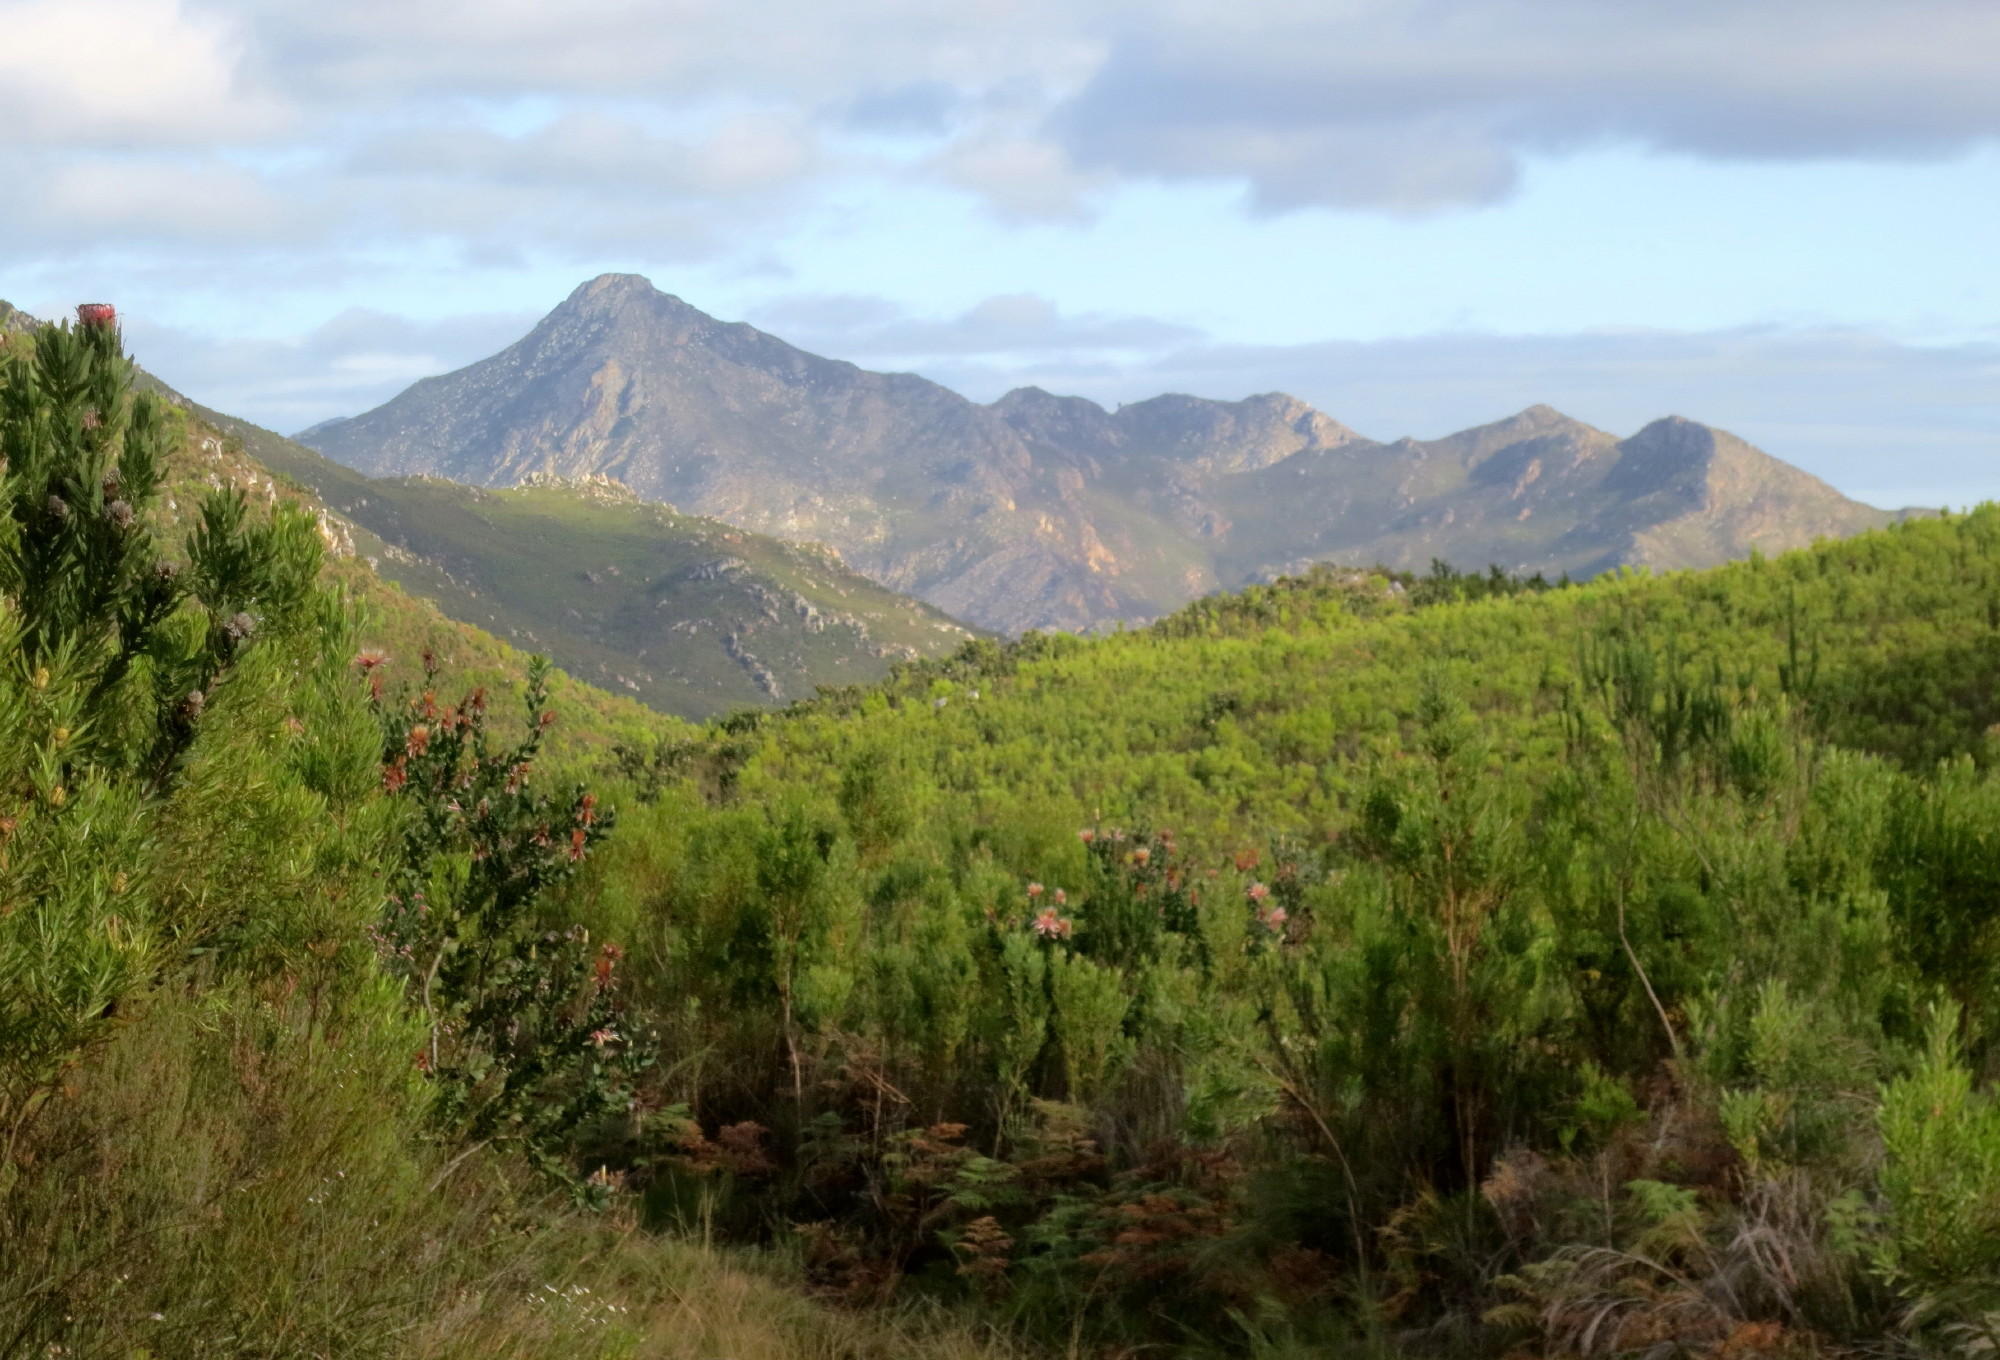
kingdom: Plantae
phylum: Tracheophyta
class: Magnoliopsida
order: Proteales
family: Proteaceae
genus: Protea
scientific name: Protea aurea
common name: Shuttlecock sugarbush
